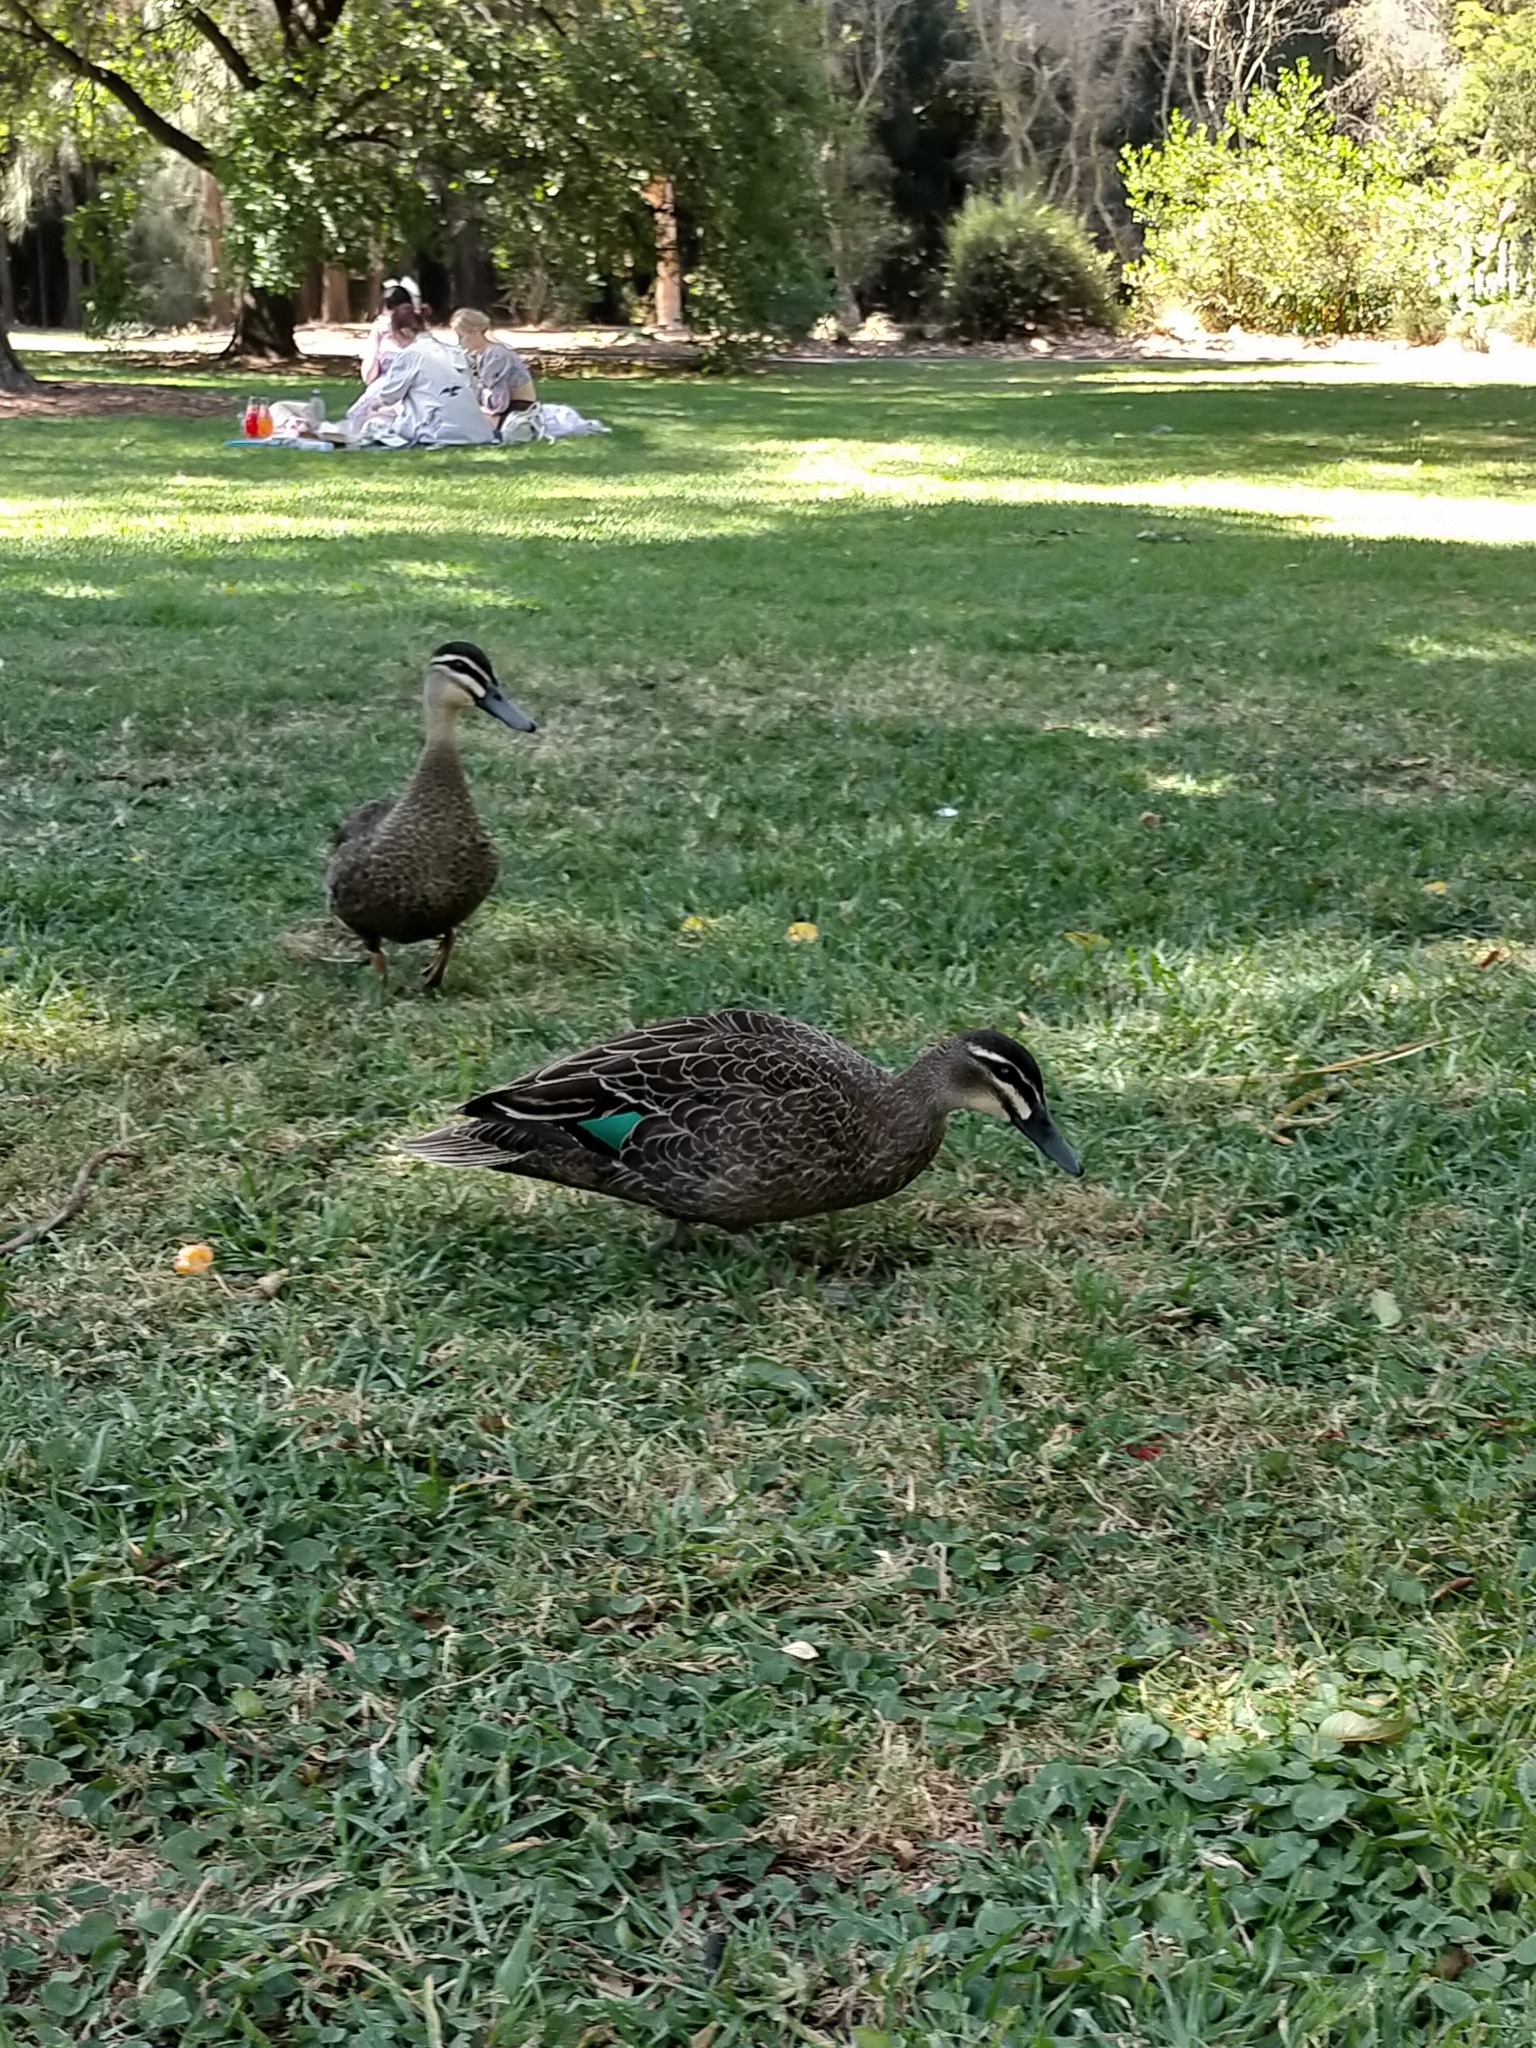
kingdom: Animalia
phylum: Chordata
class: Aves
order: Anseriformes
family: Anatidae
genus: Anas
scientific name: Anas superciliosa
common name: Pacific black duck
